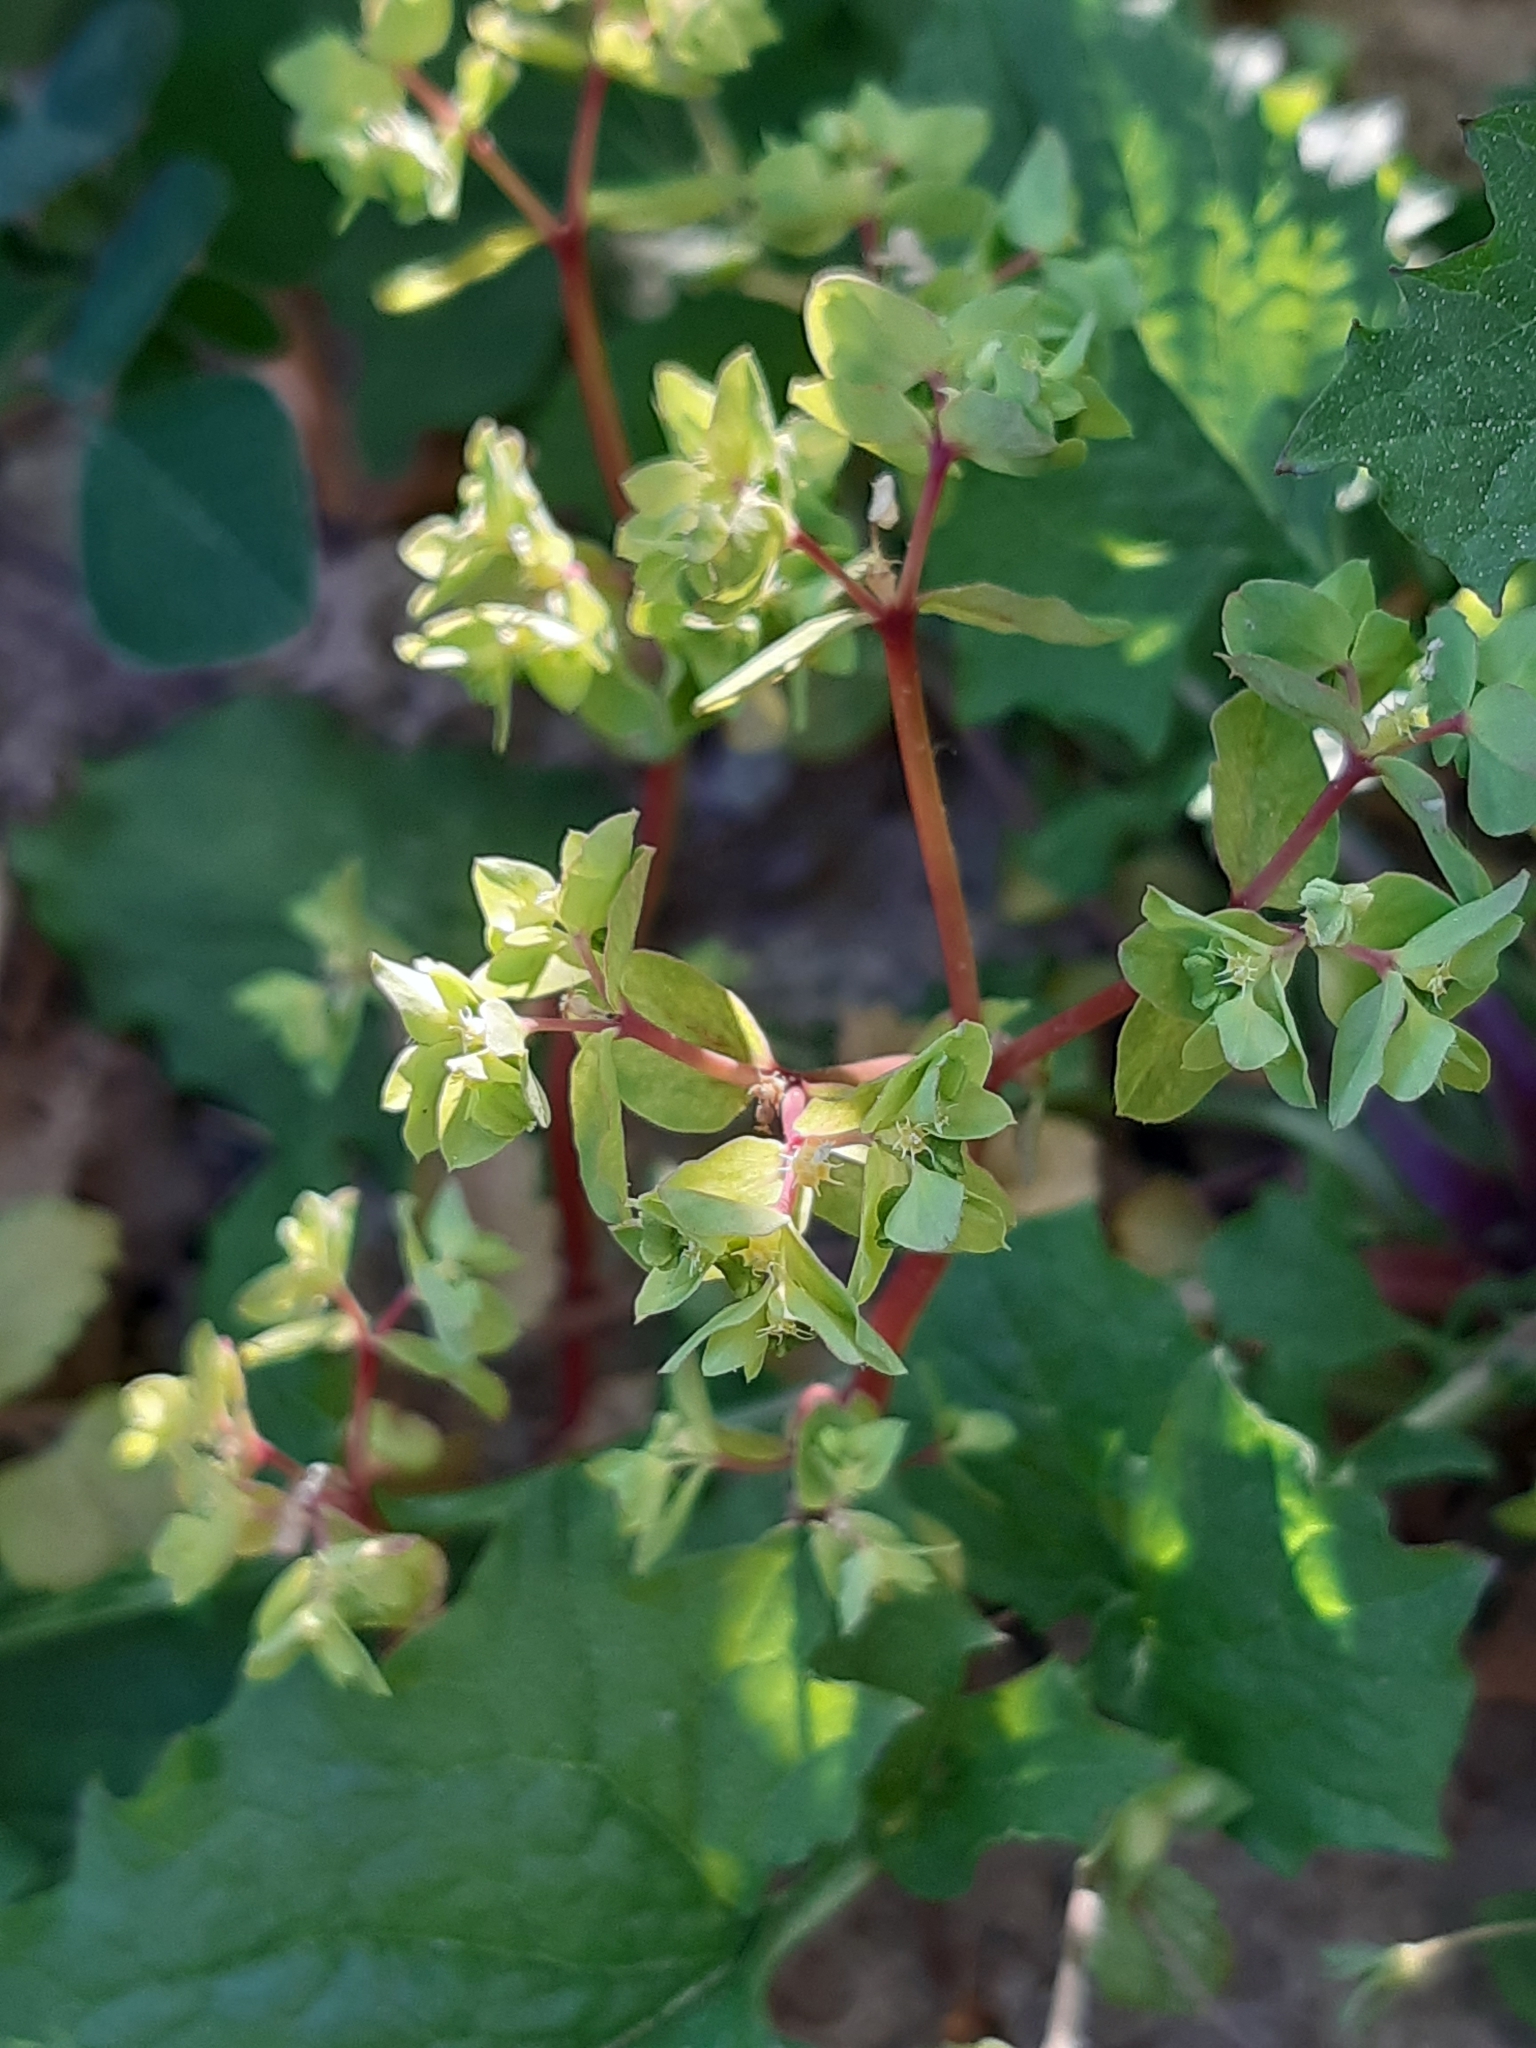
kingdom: Plantae
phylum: Tracheophyta
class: Magnoliopsida
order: Malpighiales
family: Euphorbiaceae
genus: Euphorbia
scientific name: Euphorbia peplus
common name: Petty spurge
